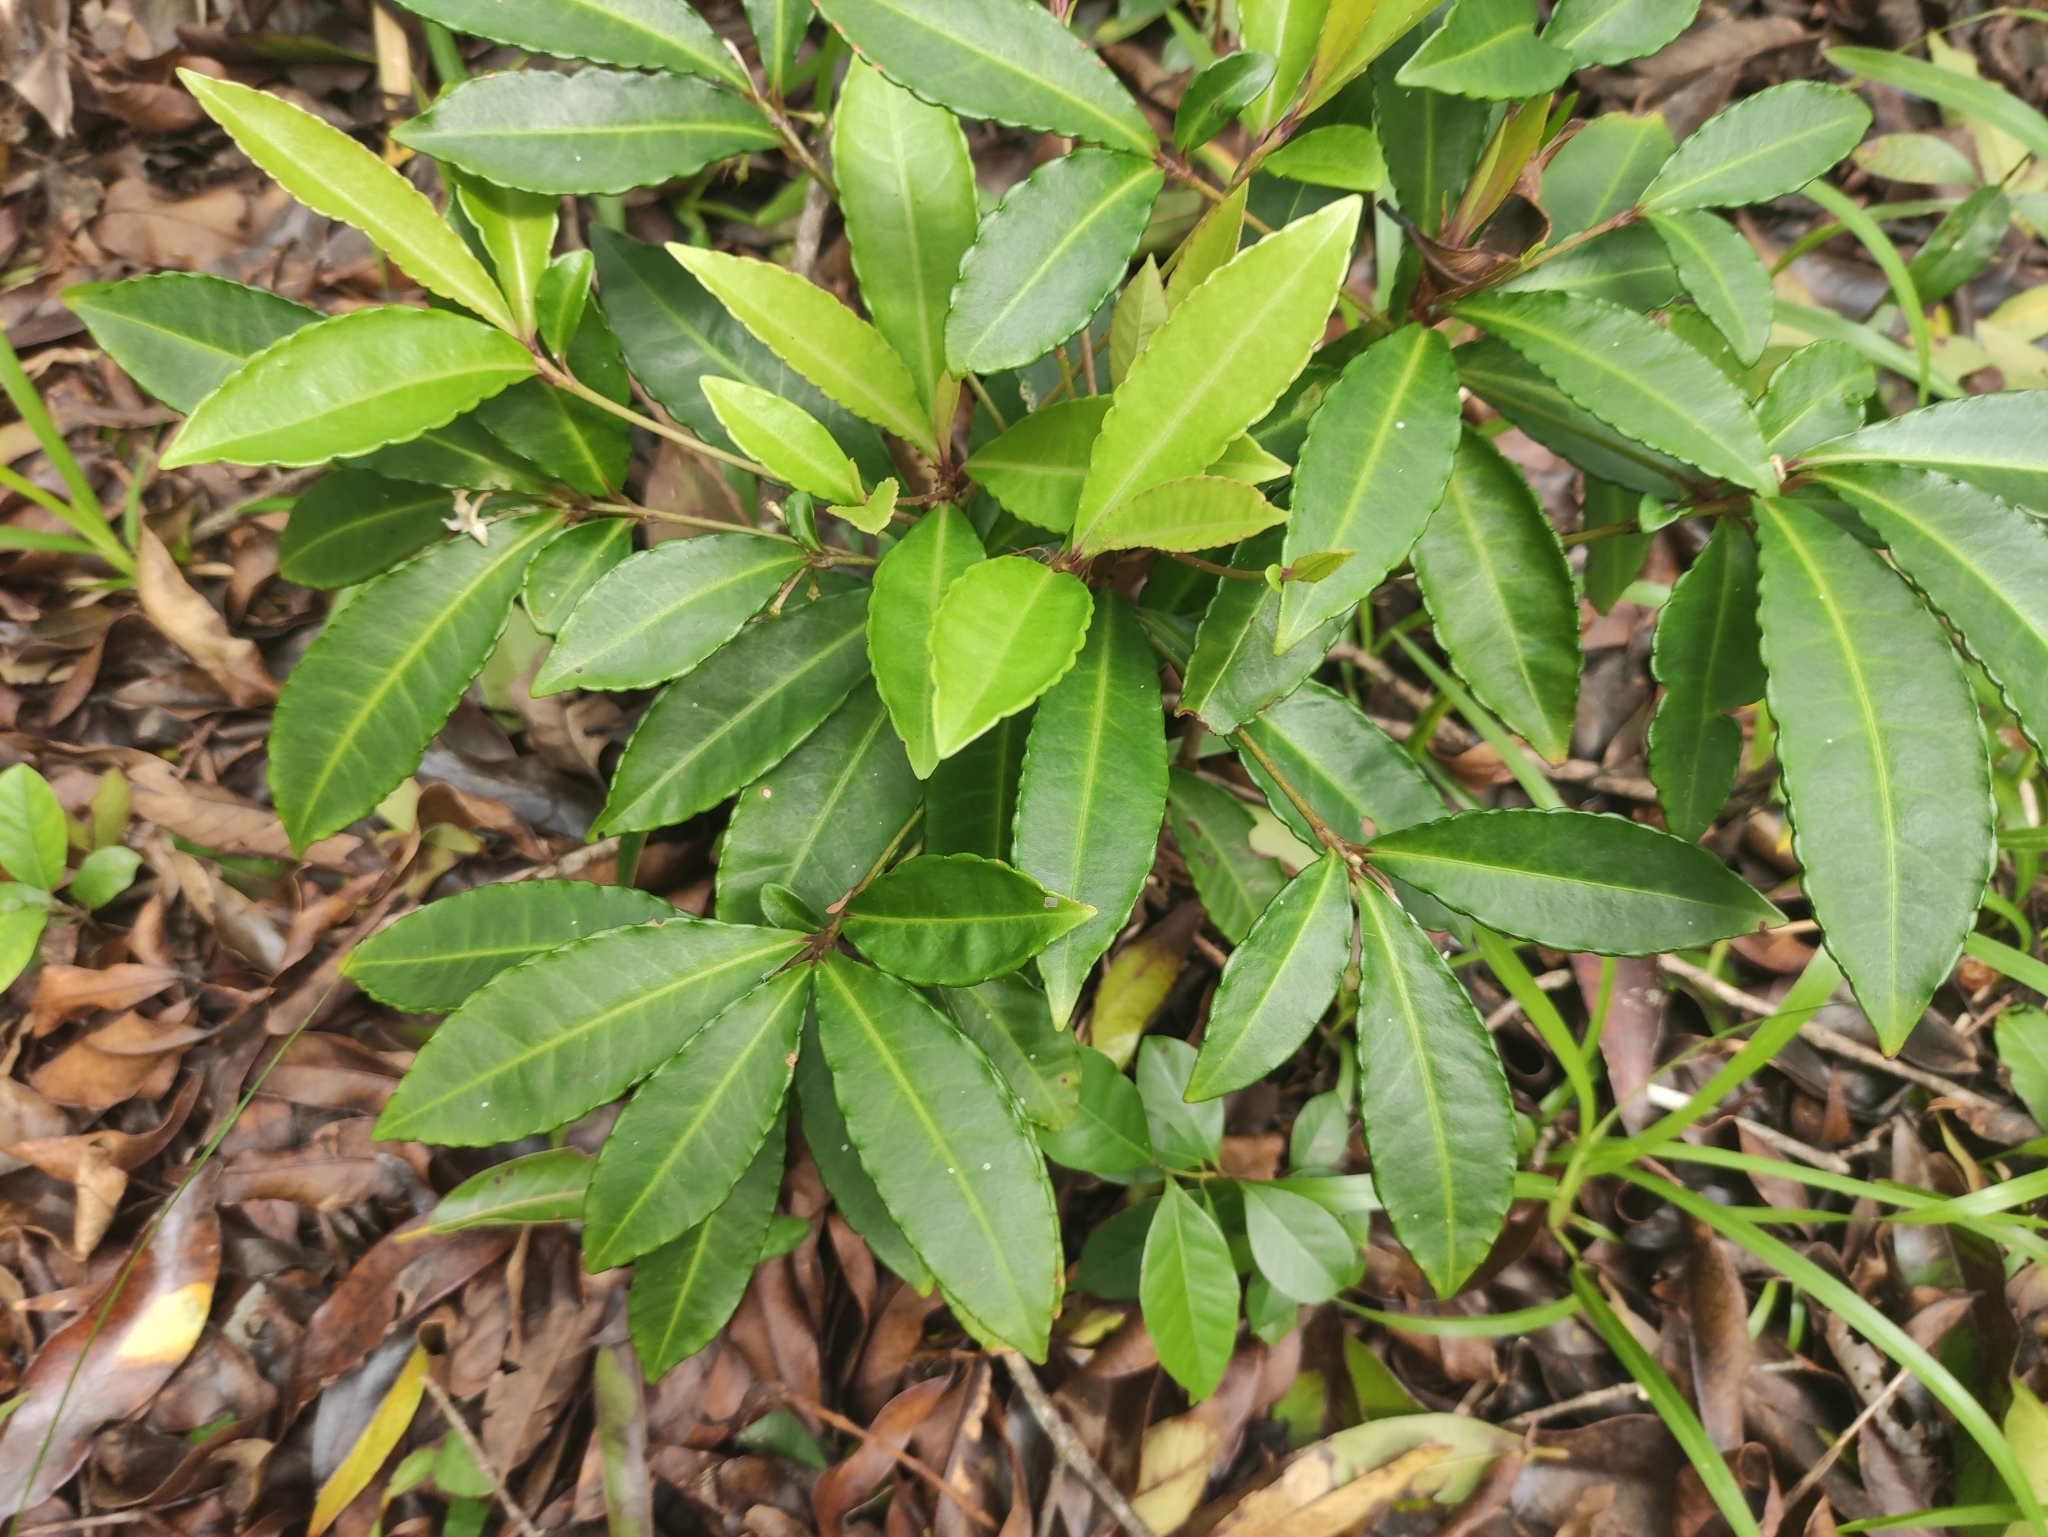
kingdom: Plantae
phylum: Tracheophyta
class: Magnoliopsida
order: Ericales
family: Primulaceae
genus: Ardisia
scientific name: Ardisia crenata
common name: Hen's eyes
